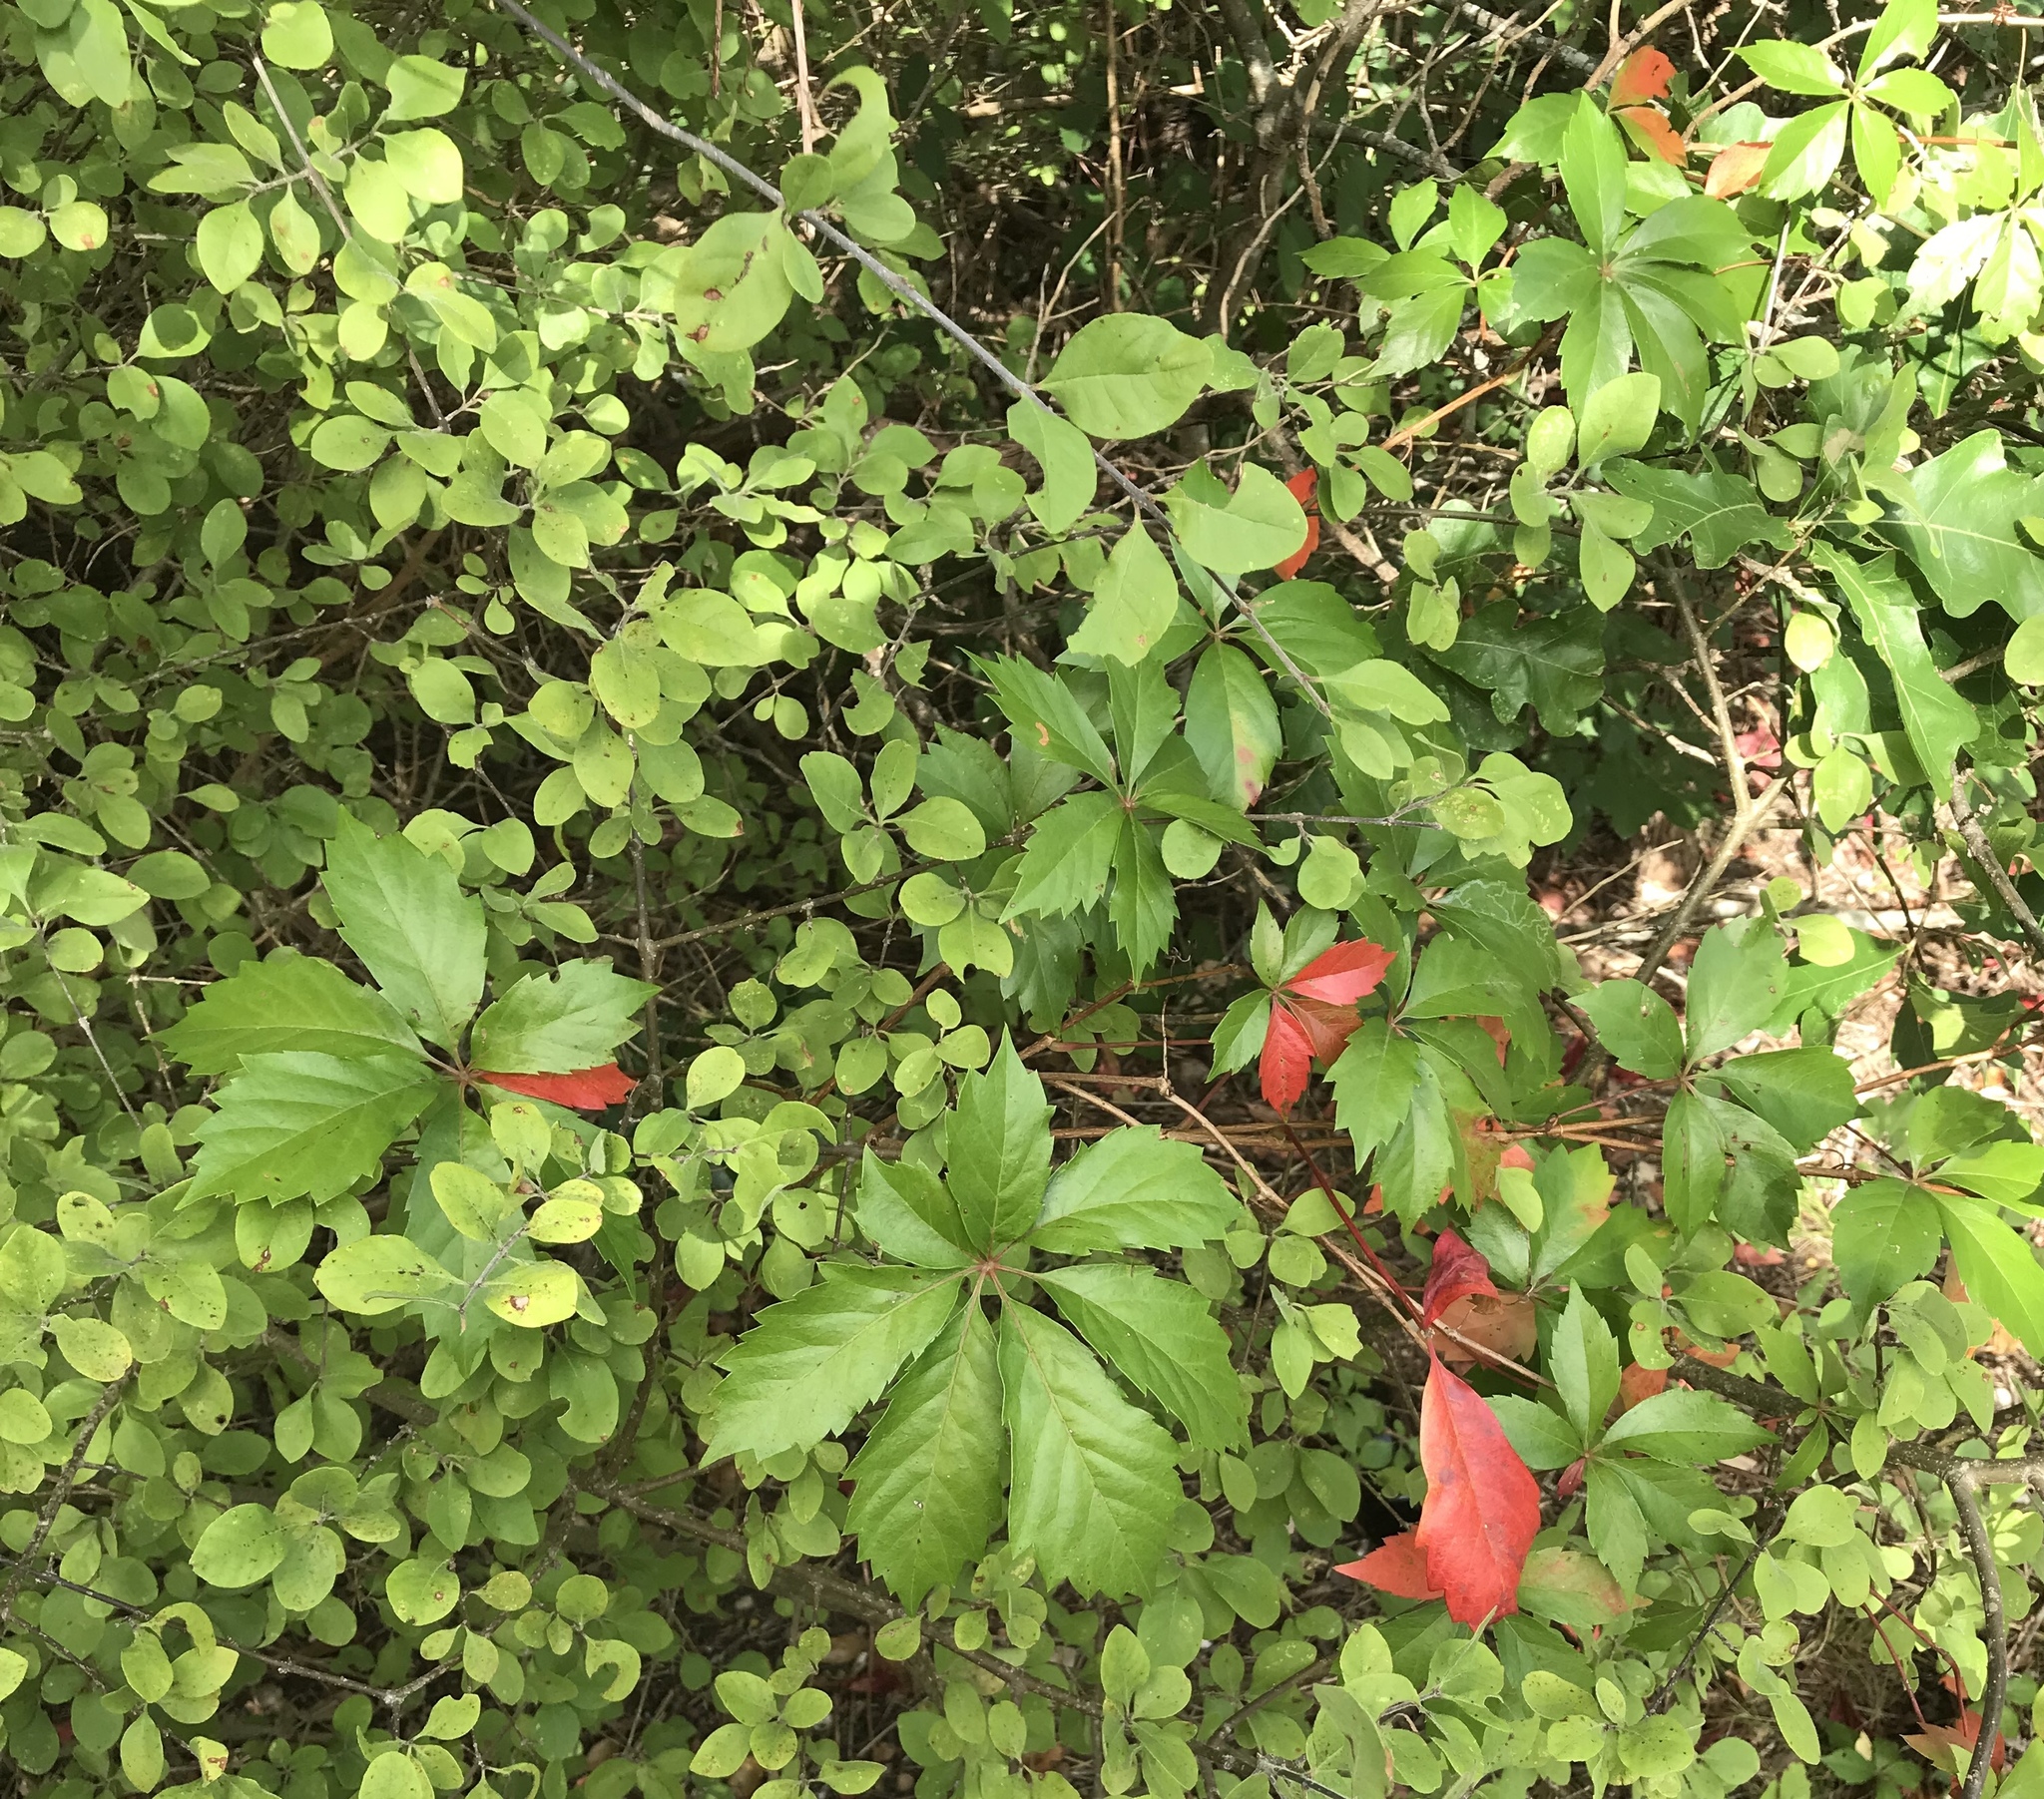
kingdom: Plantae
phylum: Tracheophyta
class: Magnoliopsida
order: Vitales
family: Vitaceae
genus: Parthenocissus
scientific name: Parthenocissus heptaphylla
